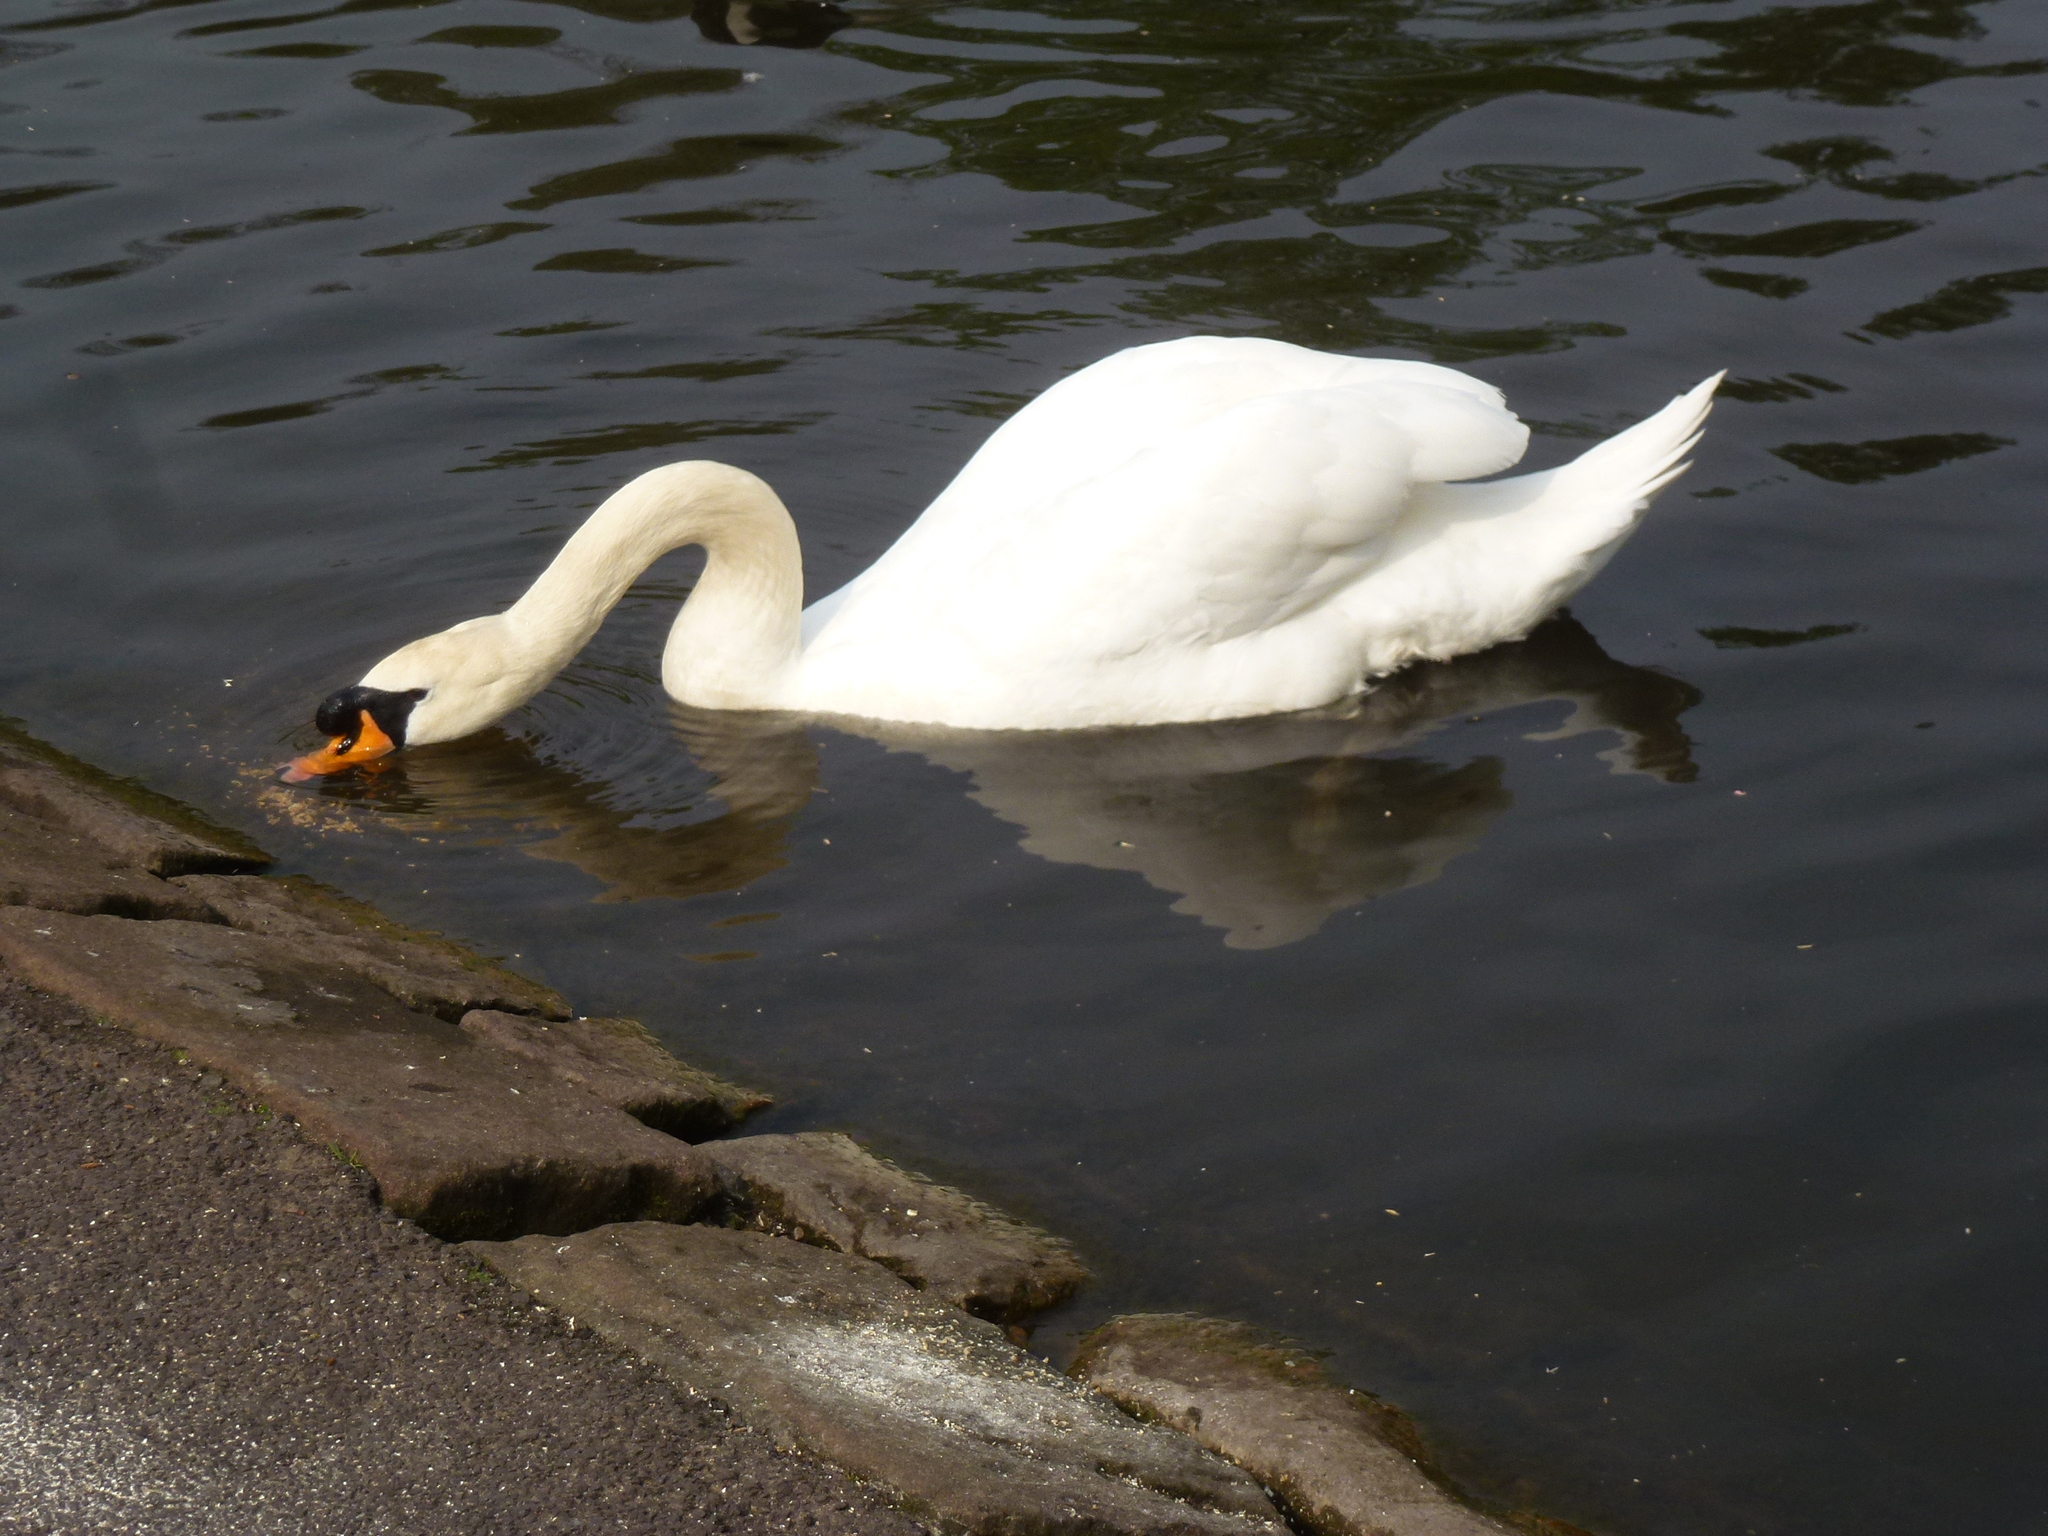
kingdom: Animalia
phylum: Chordata
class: Aves
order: Anseriformes
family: Anatidae
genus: Cygnus
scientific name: Cygnus olor
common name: Mute swan
